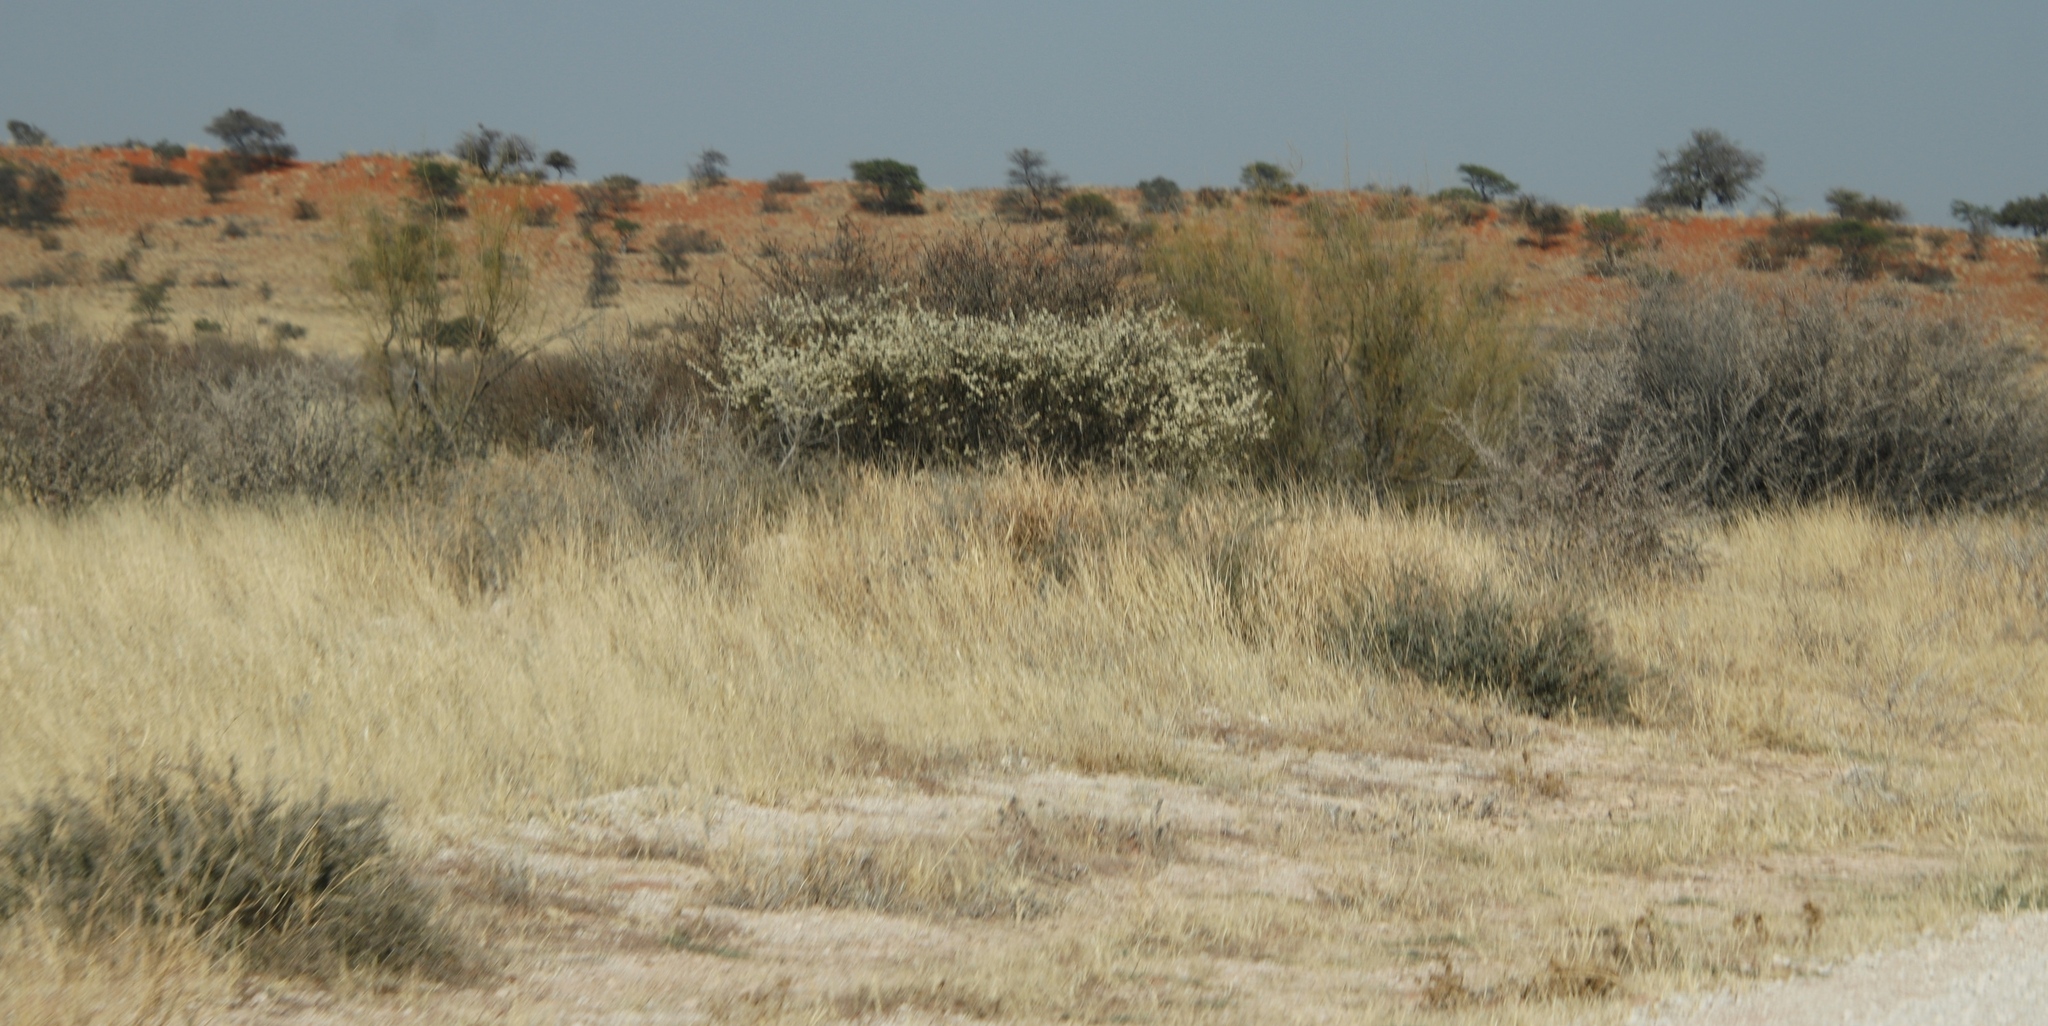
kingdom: Plantae
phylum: Tracheophyta
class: Magnoliopsida
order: Fabales
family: Fabaceae
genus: Senegalia
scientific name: Senegalia mellifera
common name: Hookthorn
